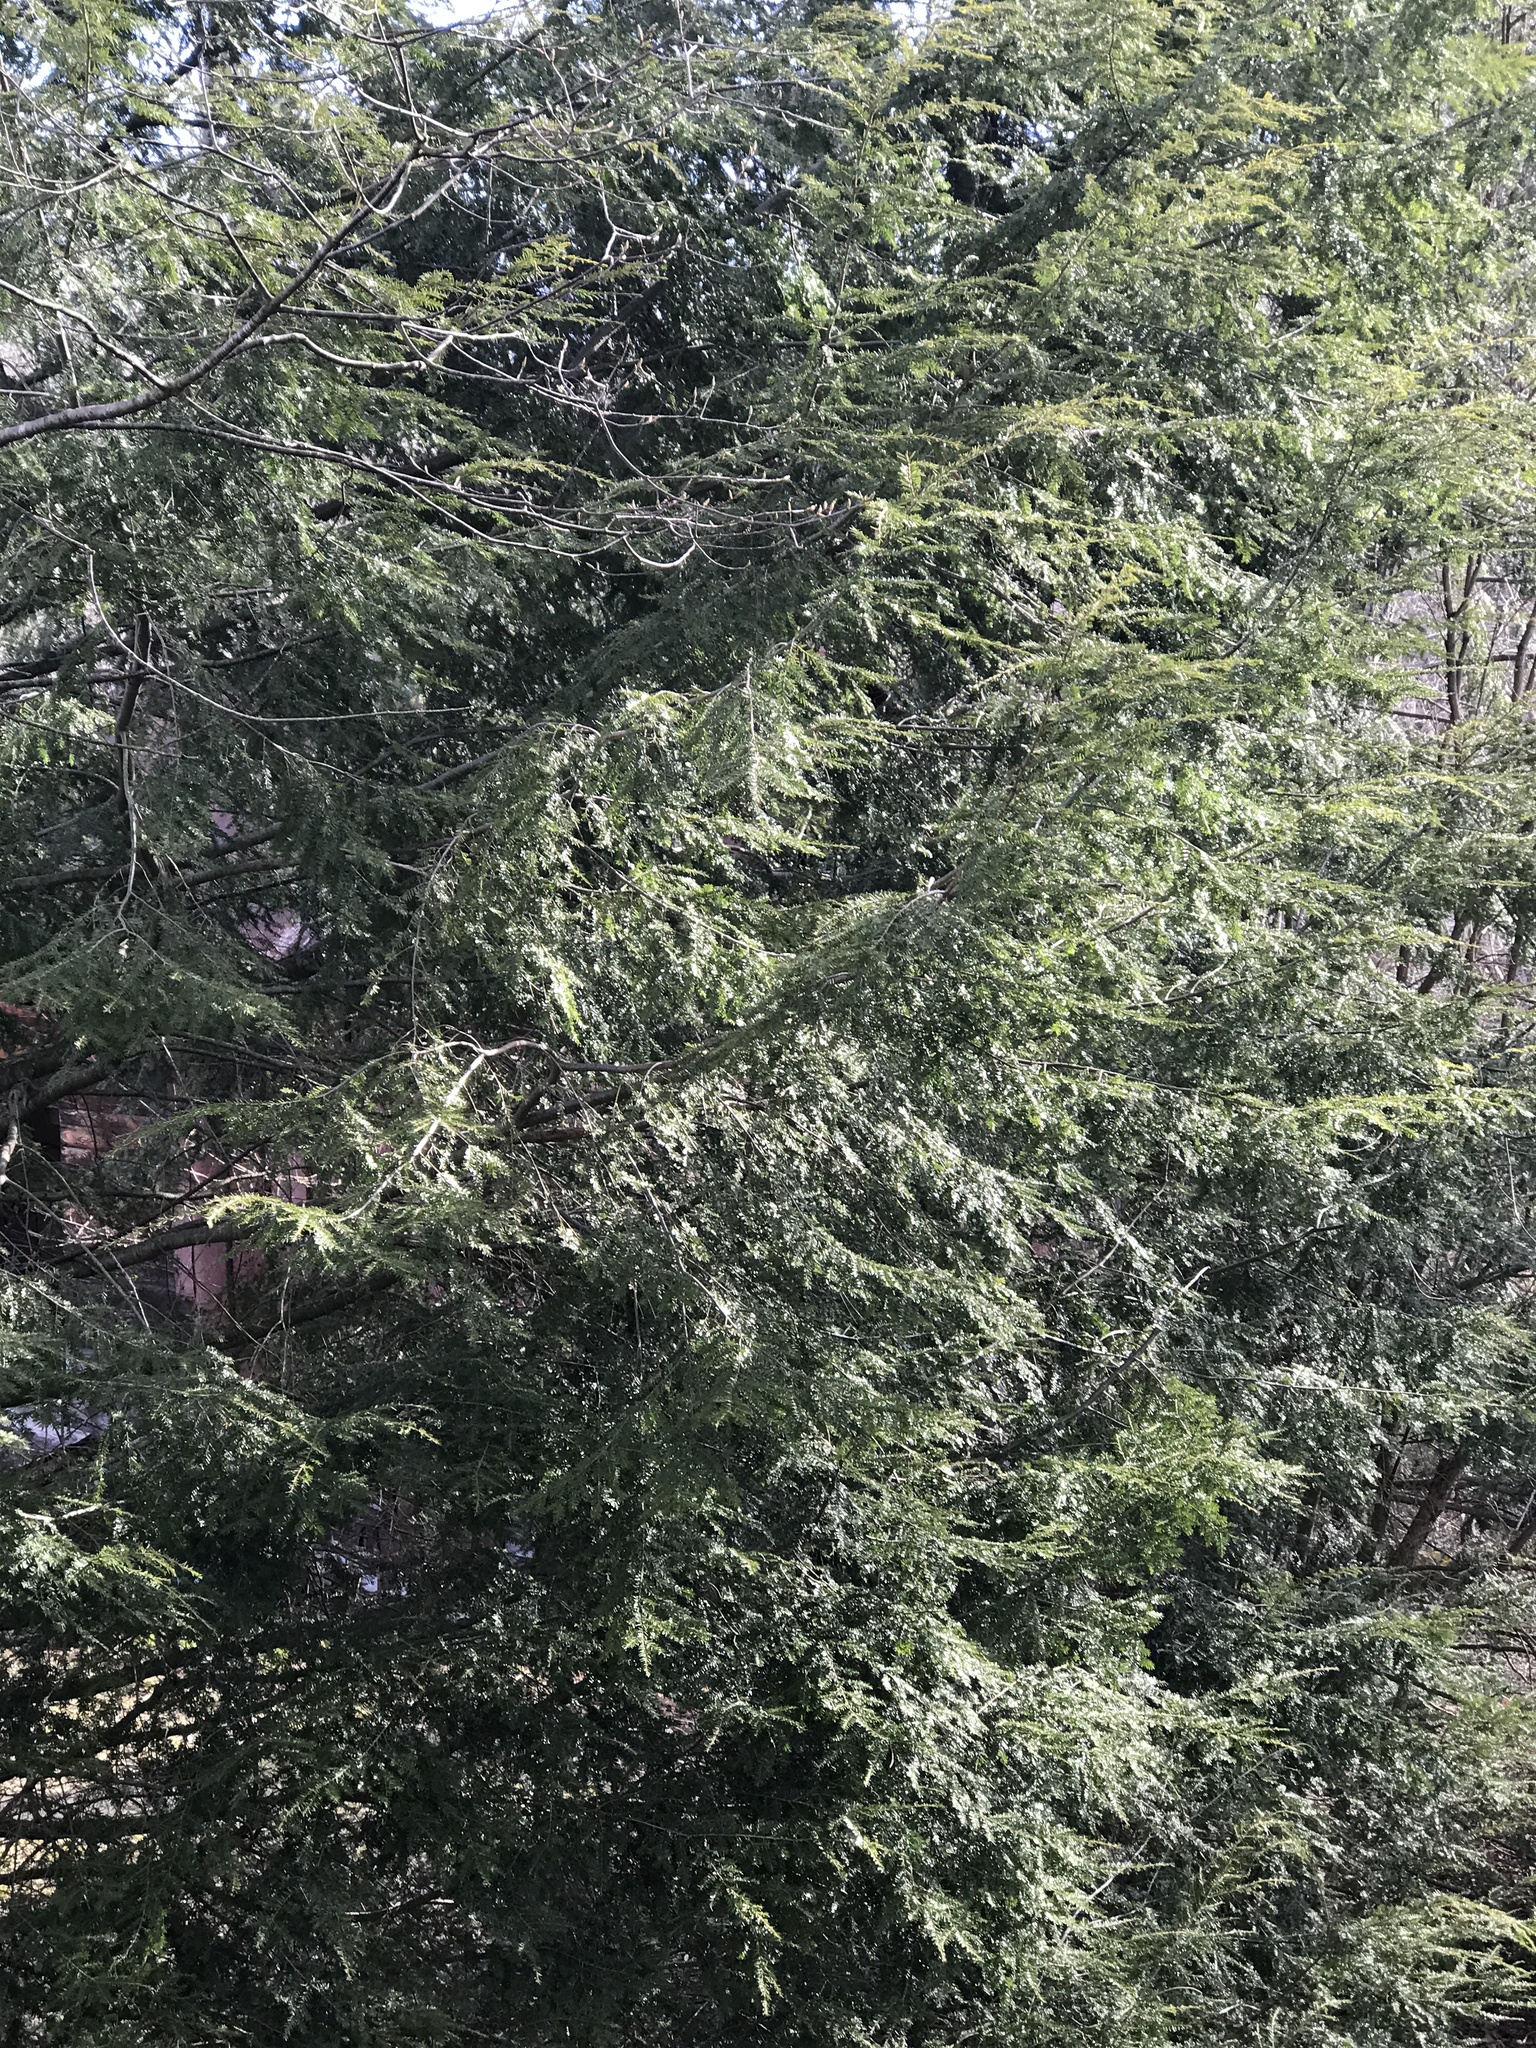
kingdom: Plantae
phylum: Tracheophyta
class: Pinopsida
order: Pinales
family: Pinaceae
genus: Tsuga
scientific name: Tsuga canadensis
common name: Eastern hemlock
